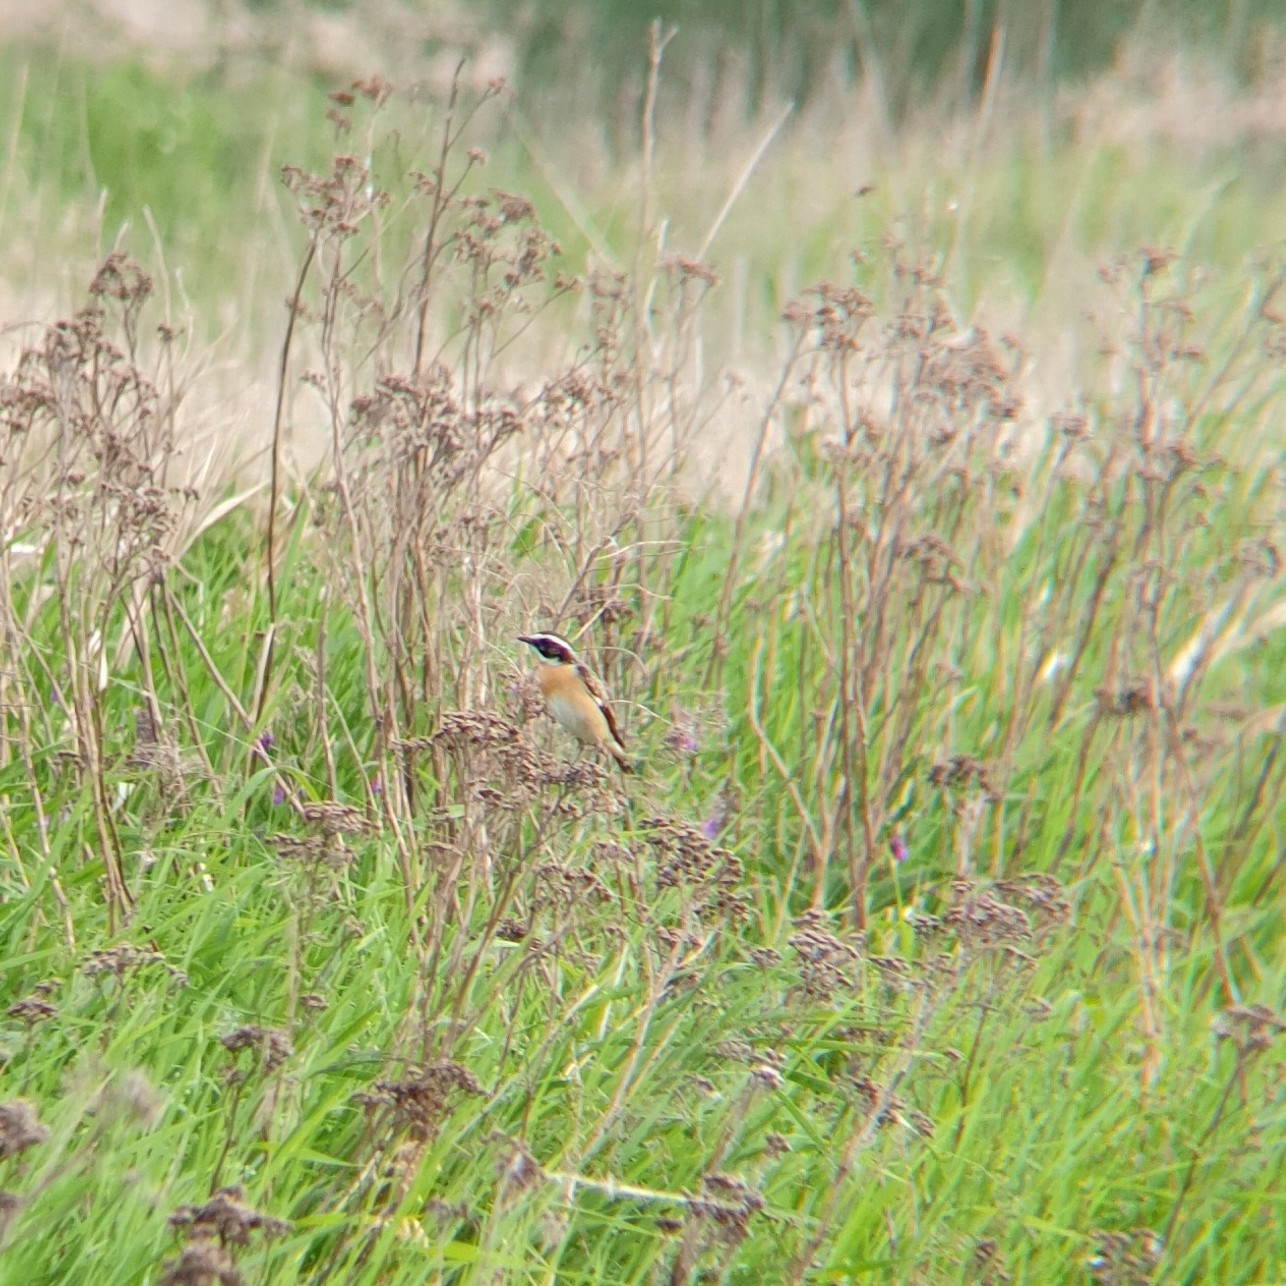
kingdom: Animalia
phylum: Chordata
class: Aves
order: Passeriformes
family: Muscicapidae
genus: Saxicola
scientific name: Saxicola rubetra
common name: Whinchat
